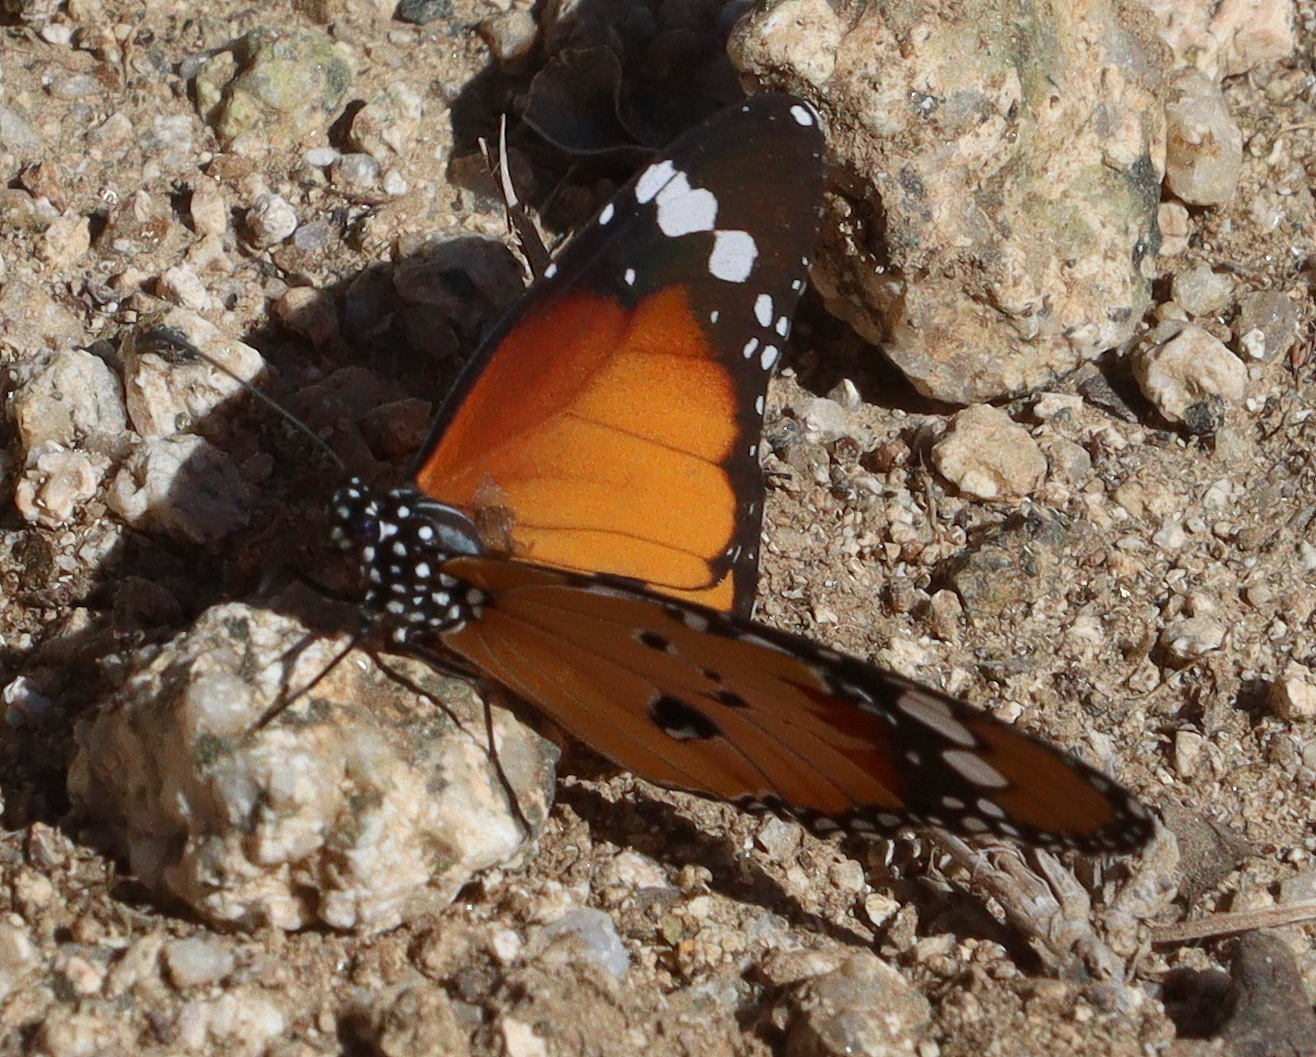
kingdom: Animalia
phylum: Arthropoda
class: Insecta
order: Lepidoptera
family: Nymphalidae
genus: Danaus
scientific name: Danaus chrysippus
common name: Plain tiger
